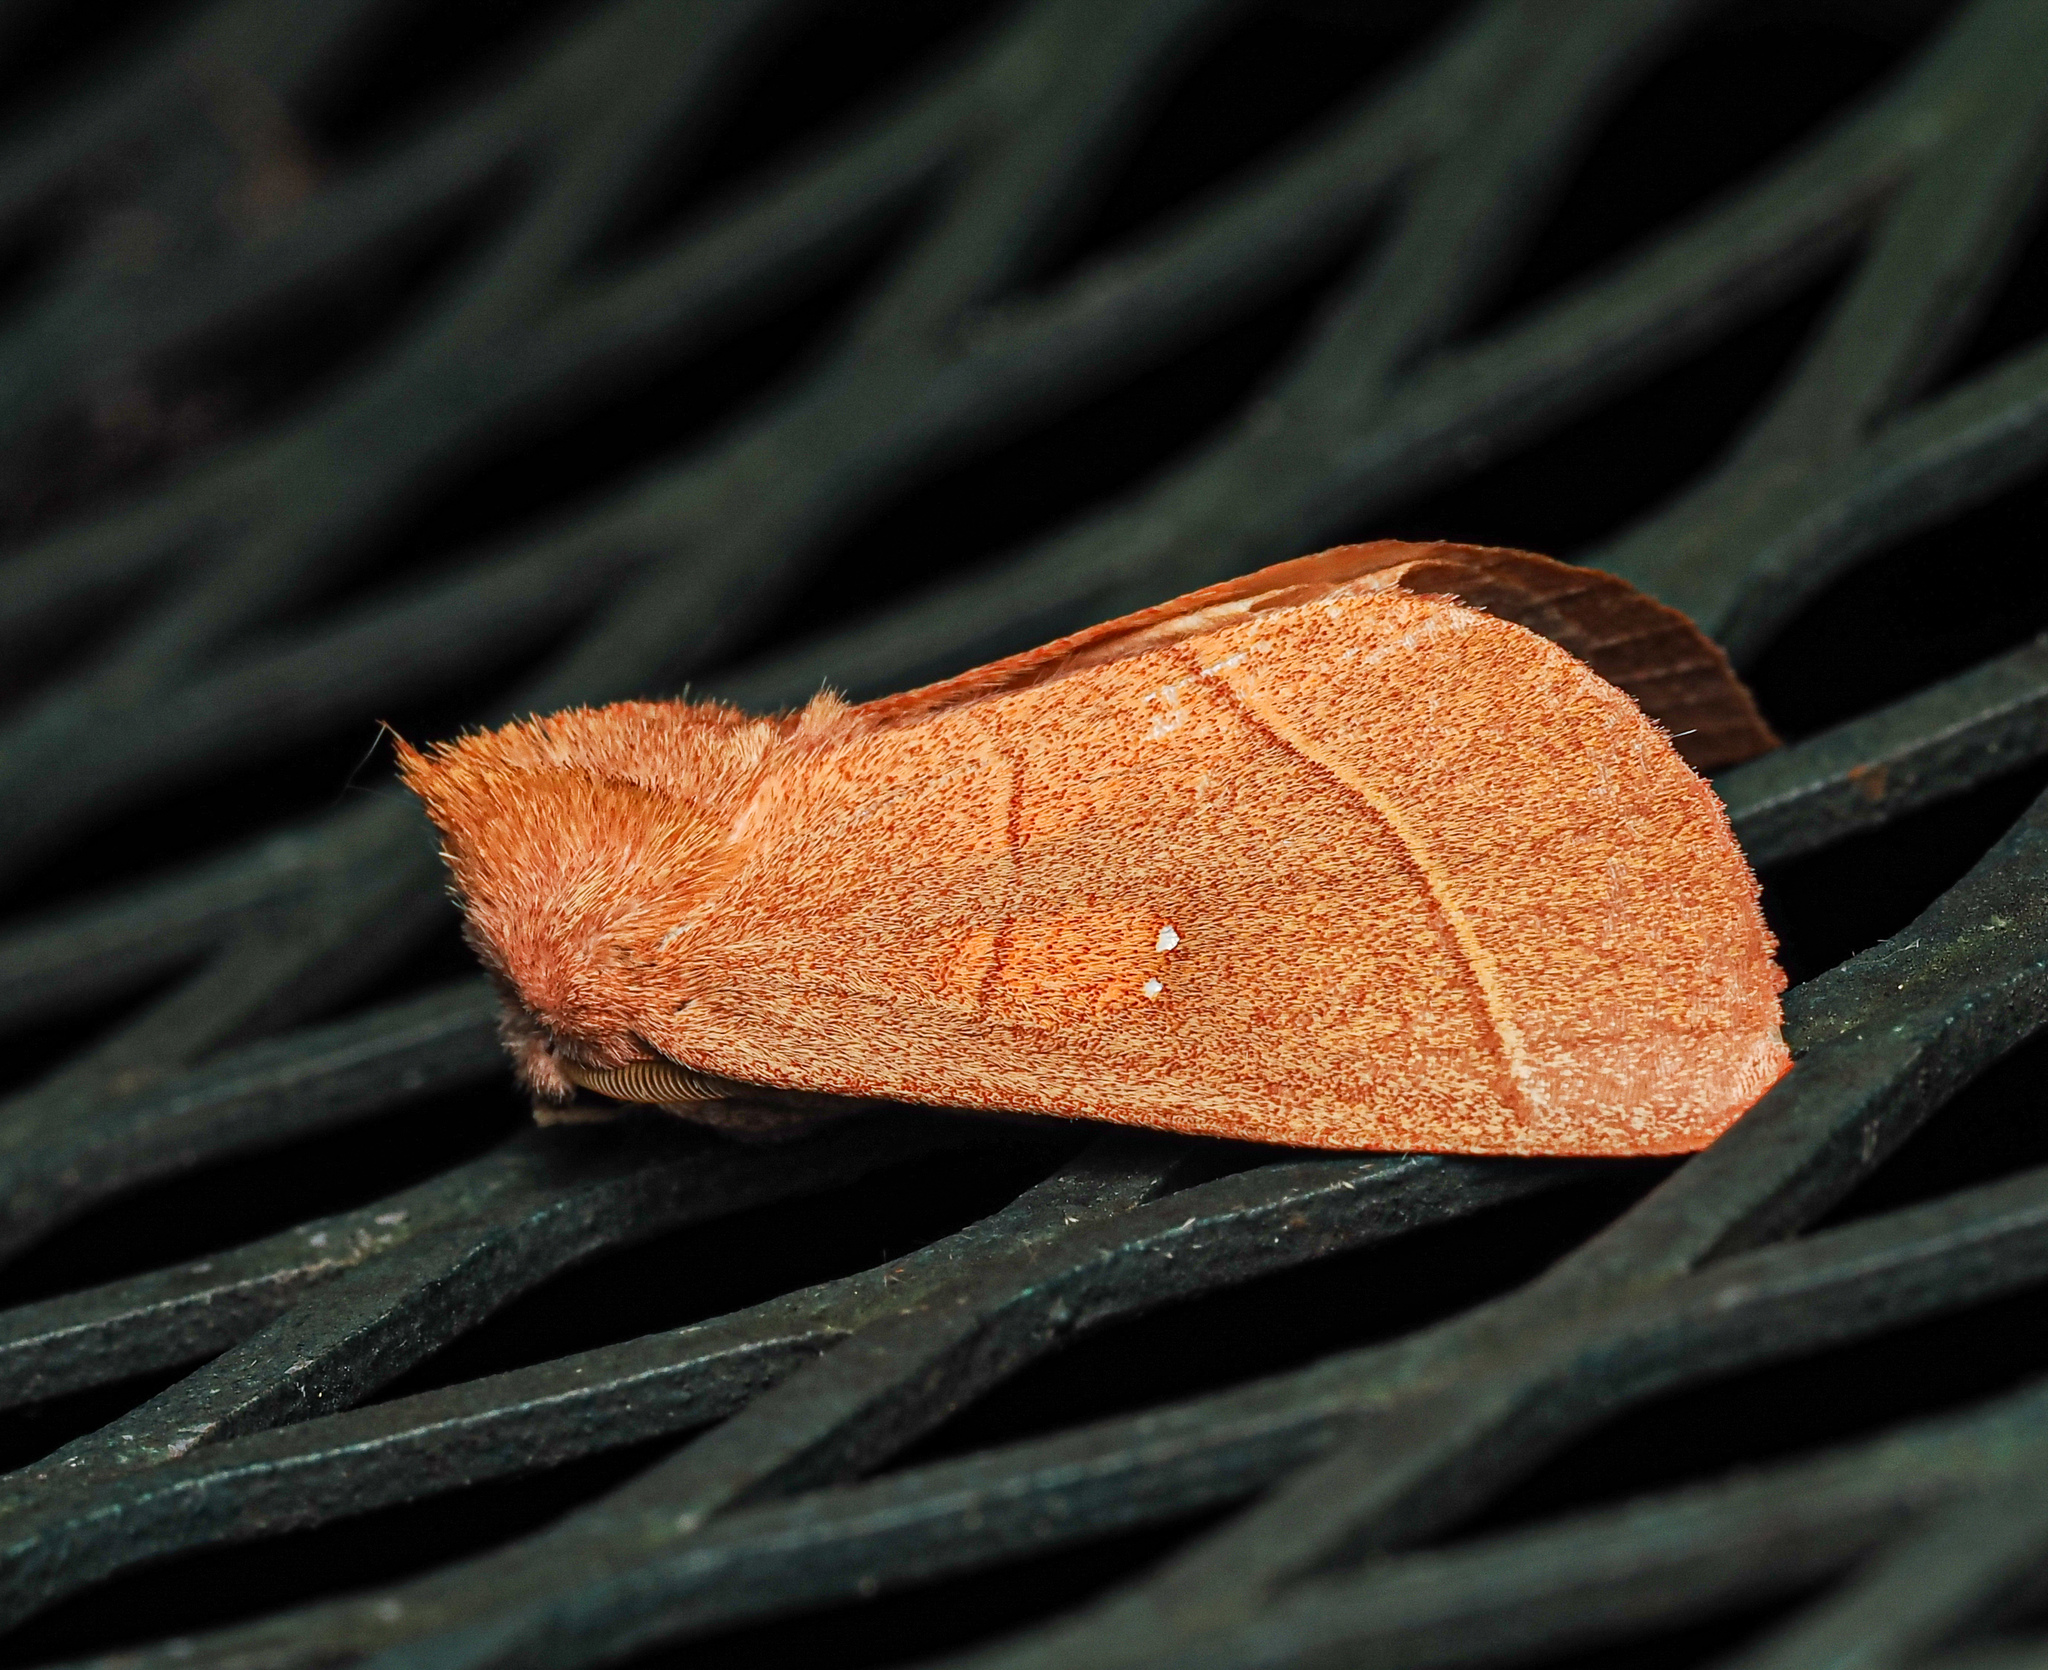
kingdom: Animalia
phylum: Arthropoda
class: Insecta
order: Lepidoptera
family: Notodontidae
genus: Nadata
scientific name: Nadata gibbosa
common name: White-dotted prominent
